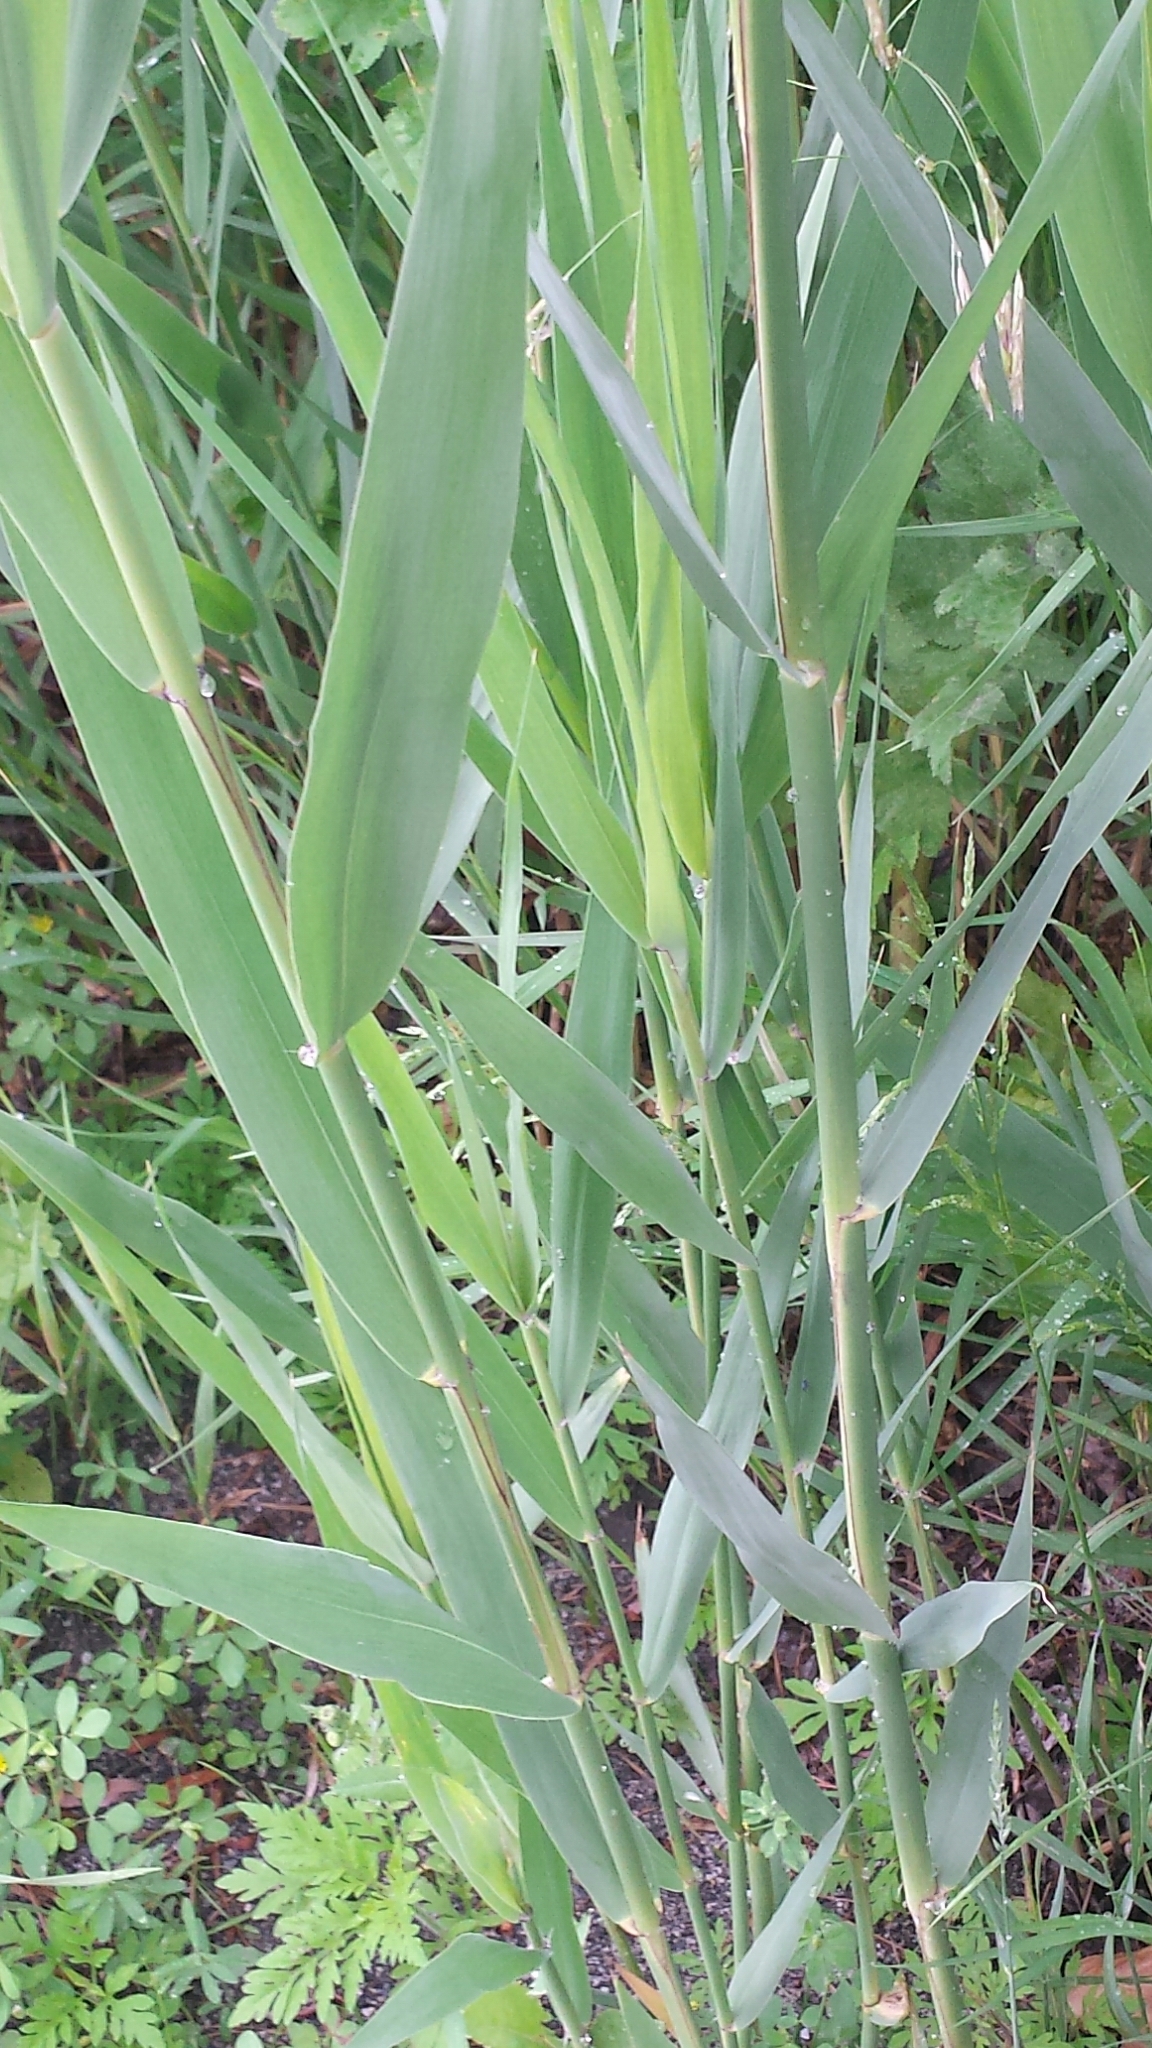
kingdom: Plantae
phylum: Tracheophyta
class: Liliopsida
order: Poales
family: Poaceae
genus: Phragmites
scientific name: Phragmites australis
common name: Common reed
